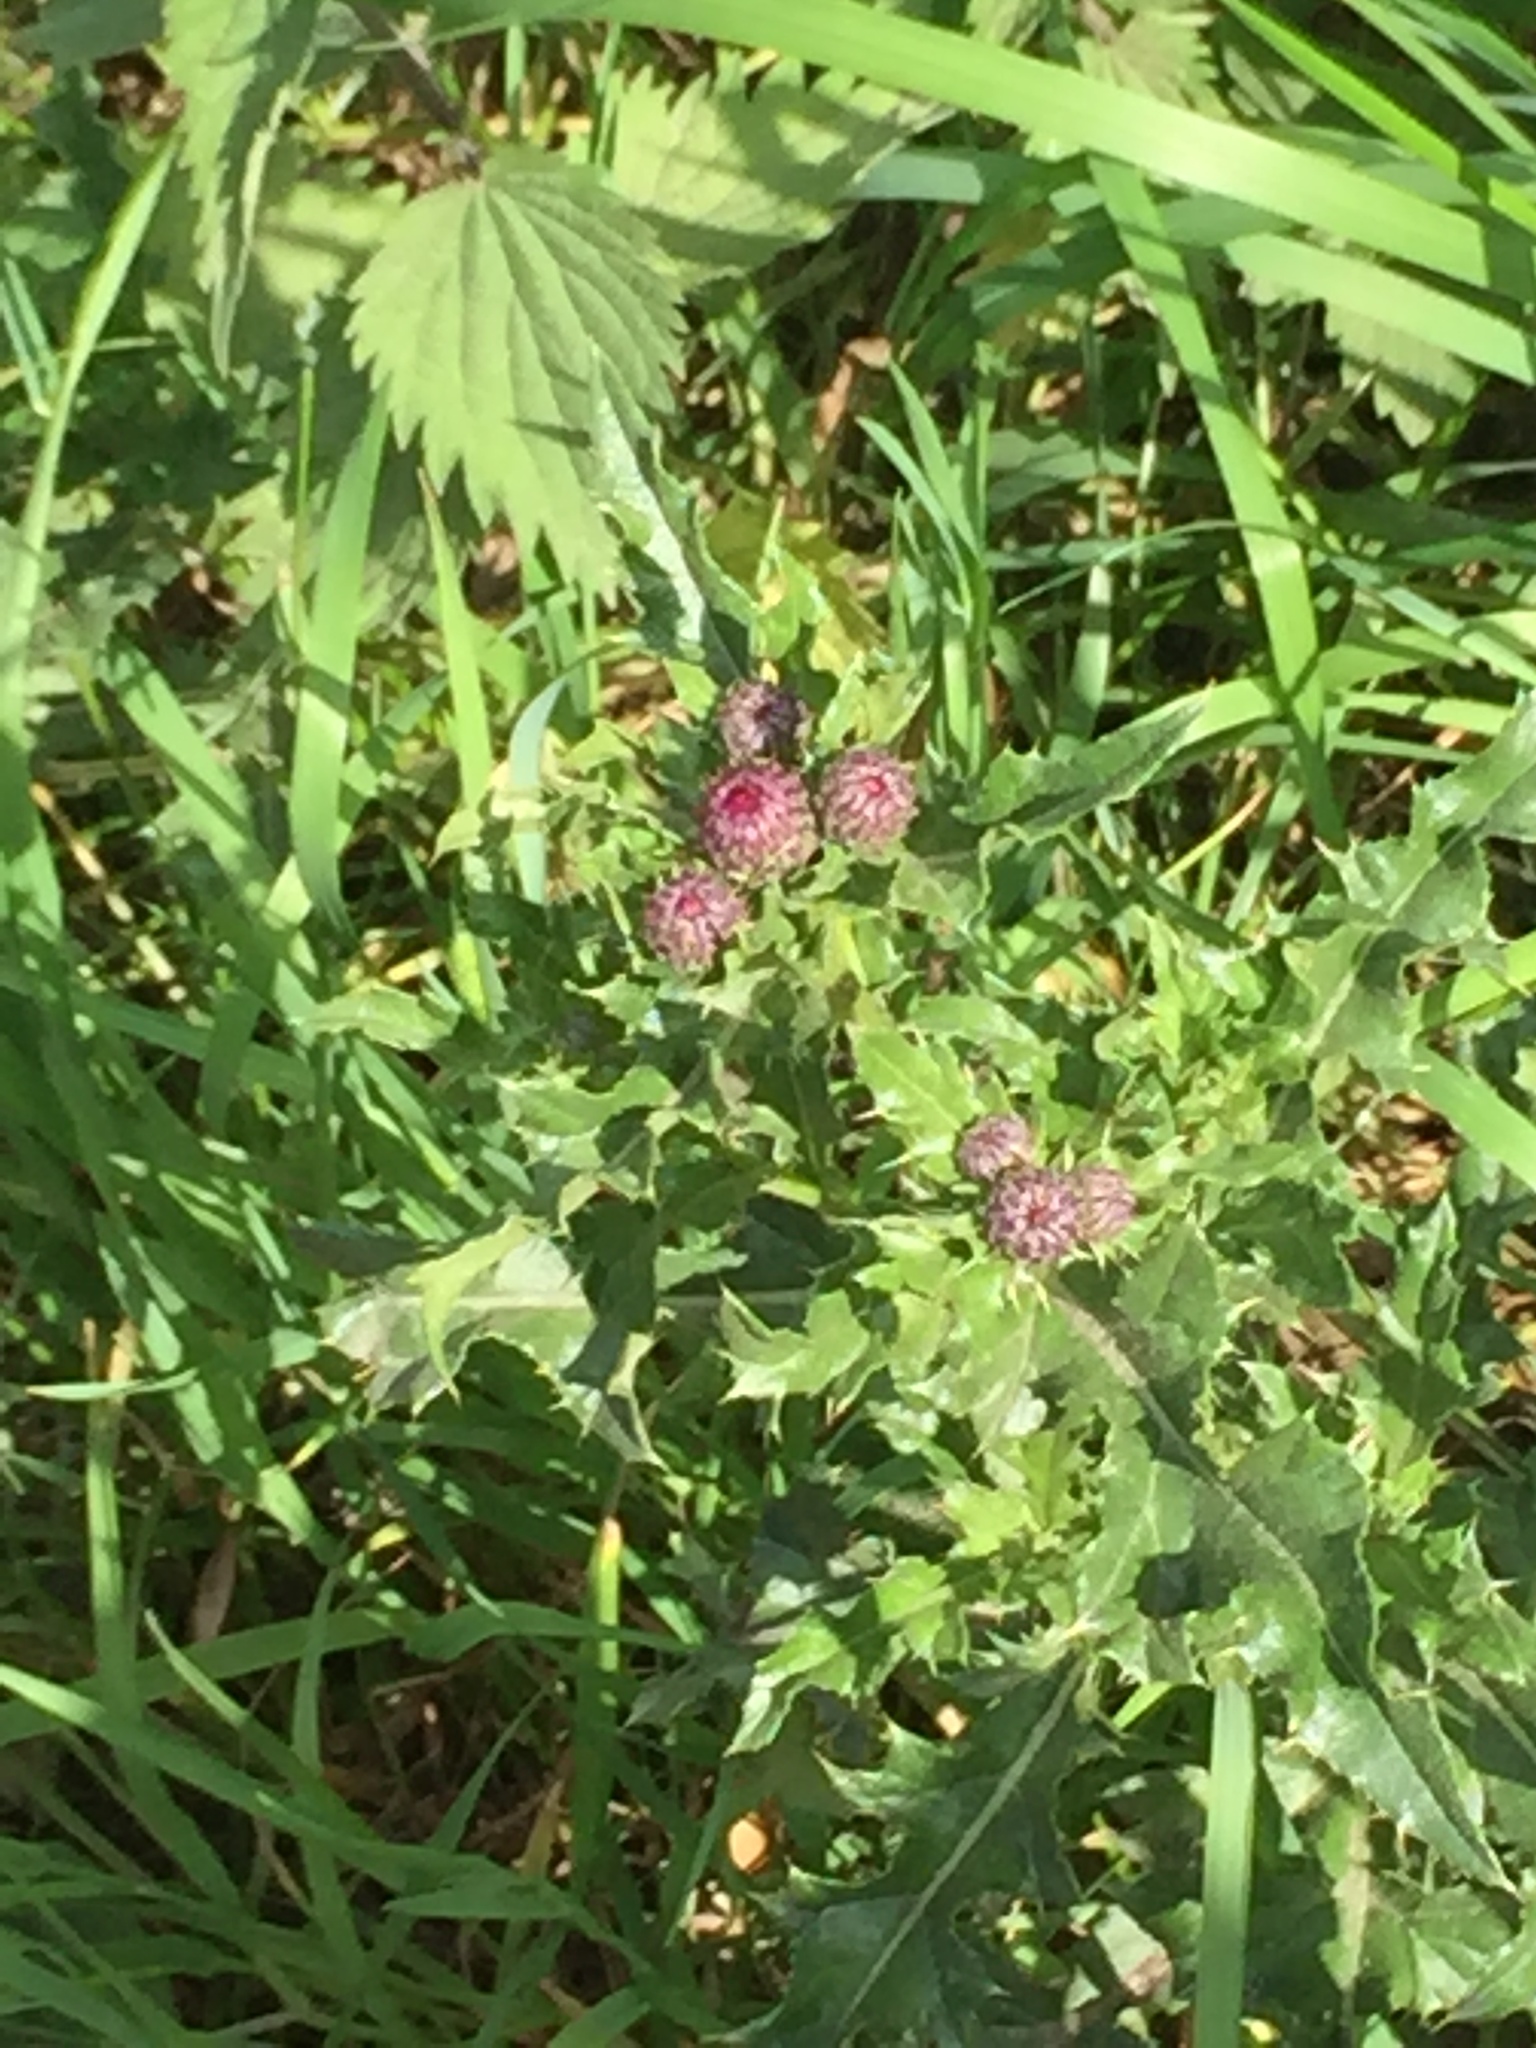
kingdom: Plantae
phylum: Tracheophyta
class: Magnoliopsida
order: Asterales
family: Asteraceae
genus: Cirsium
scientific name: Cirsium arvense
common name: Creeping thistle
